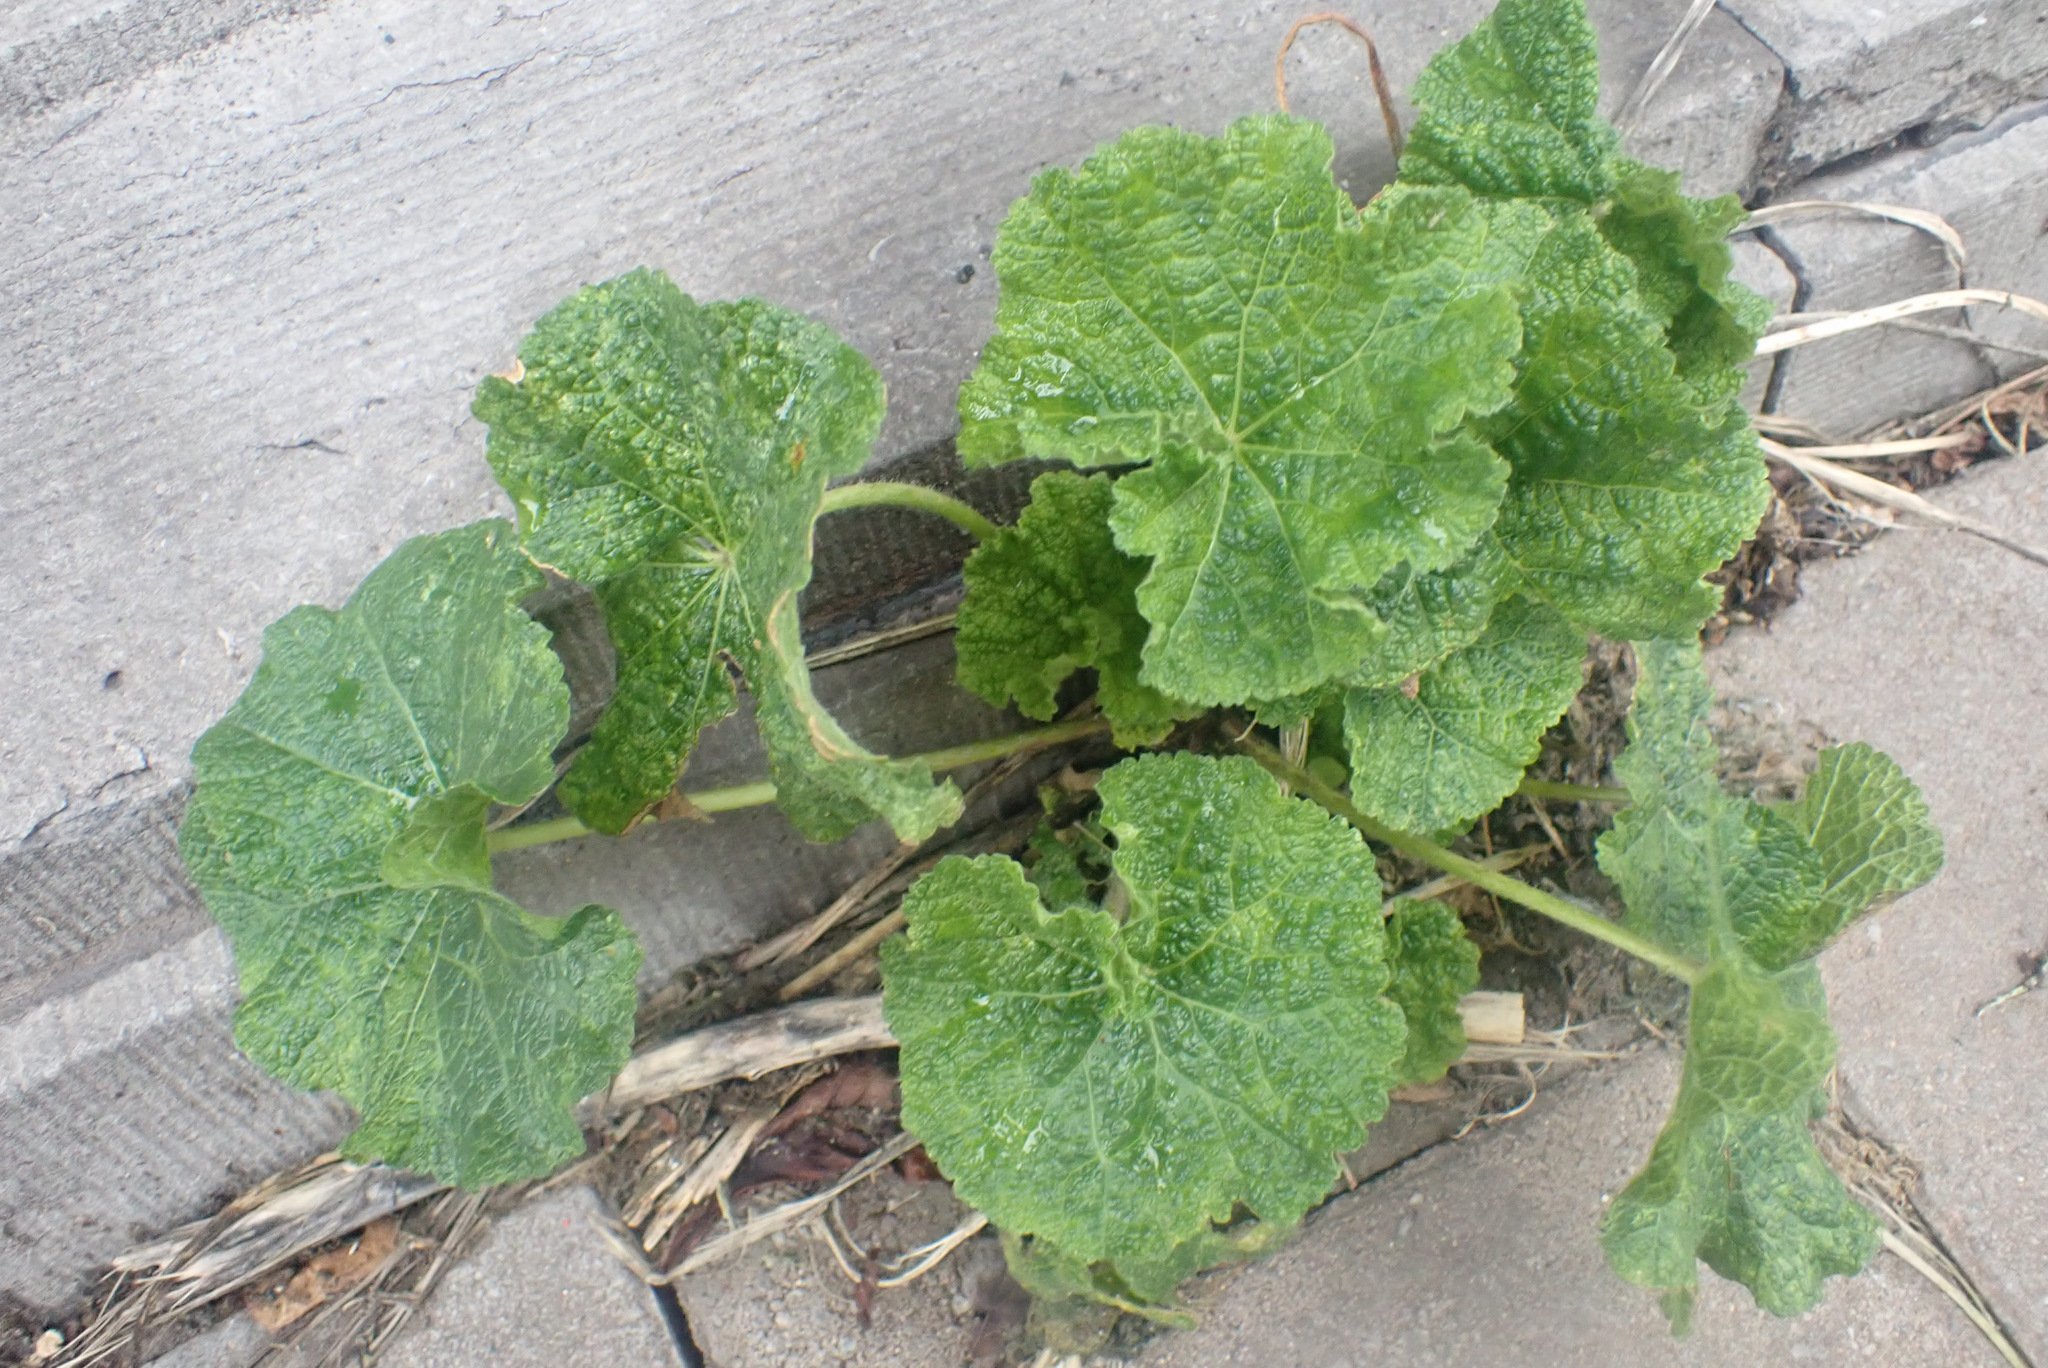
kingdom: Plantae
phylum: Tracheophyta
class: Magnoliopsida
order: Malvales
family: Malvaceae
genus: Alcea
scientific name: Alcea rosea
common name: Hollyhock
